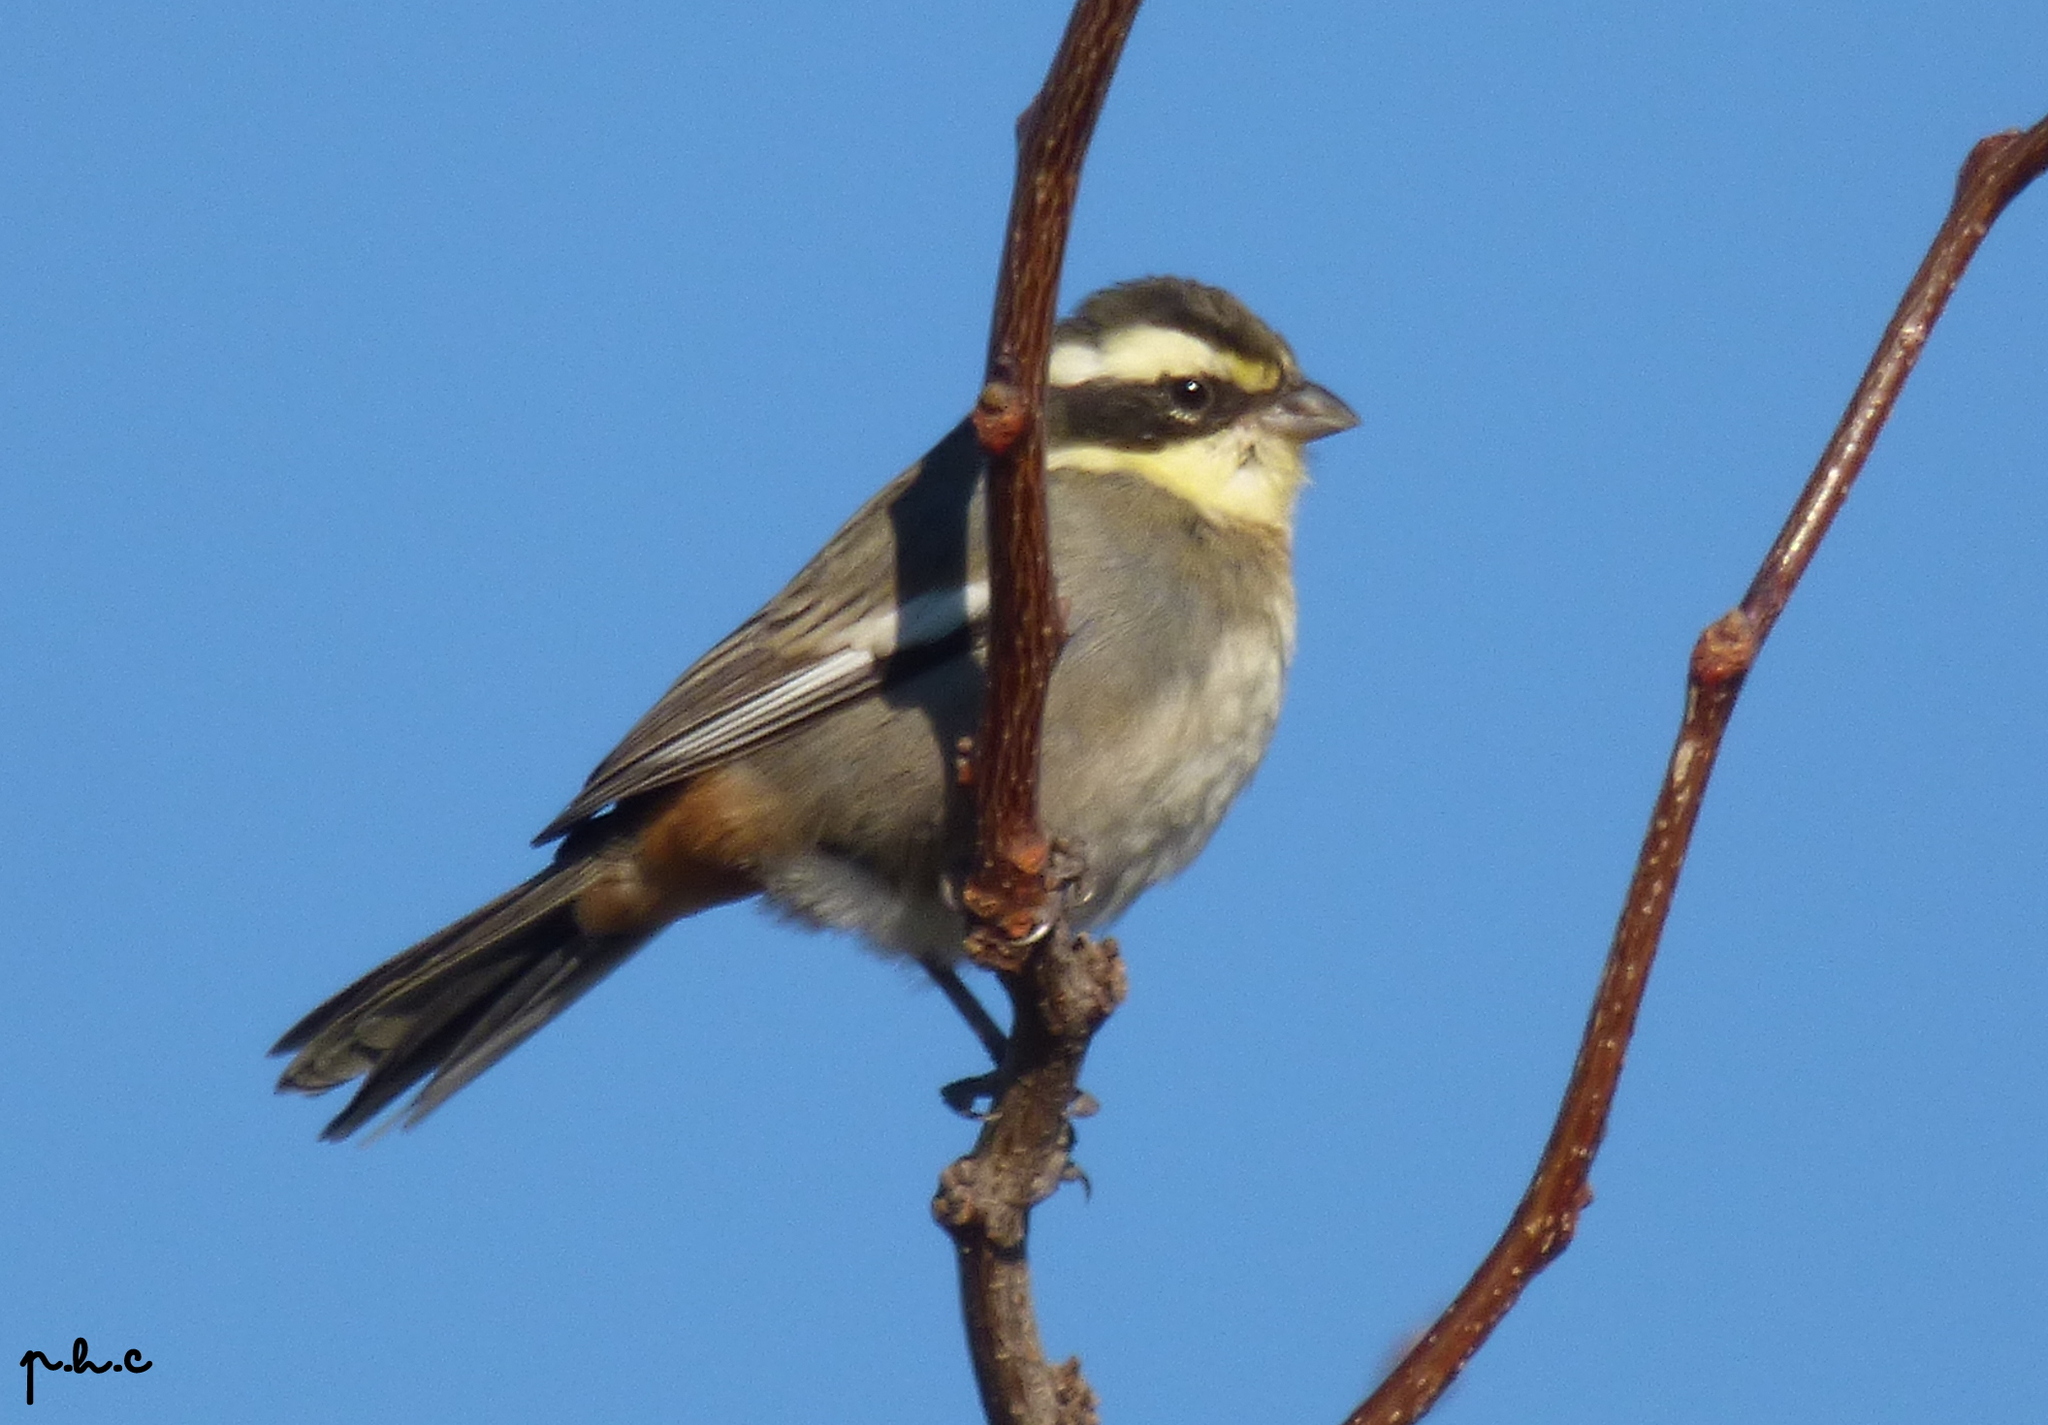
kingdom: Animalia
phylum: Chordata
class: Aves
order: Passeriformes
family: Thraupidae
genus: Microspingus
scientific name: Microspingus torquatus
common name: Ringed warbling-finch
